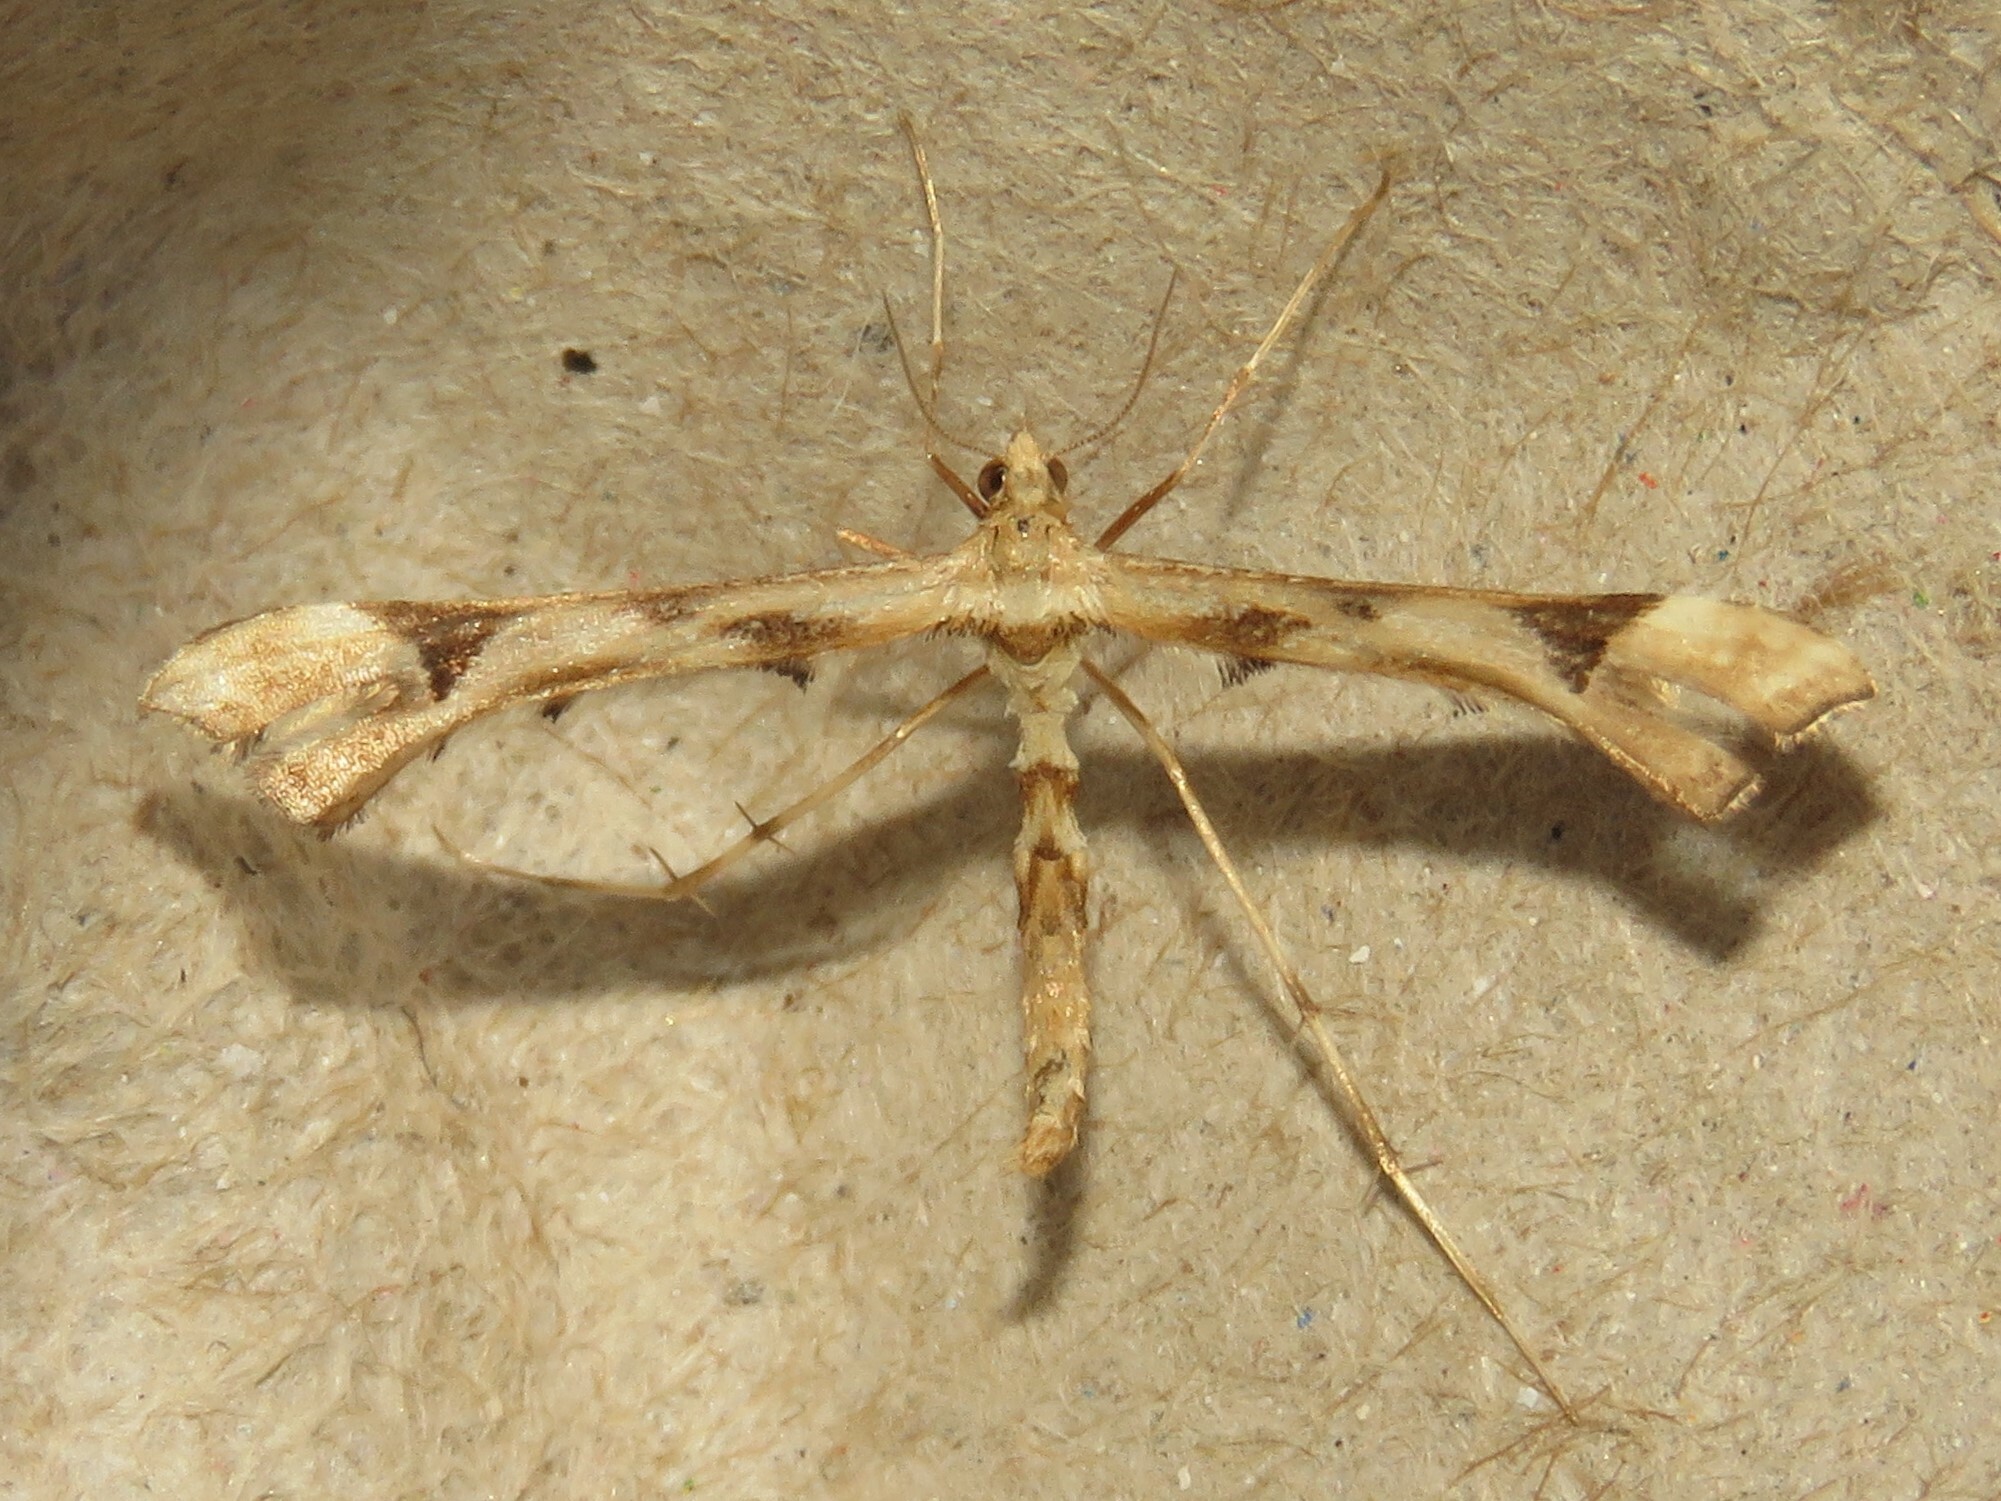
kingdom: Animalia
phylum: Arthropoda
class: Insecta
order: Lepidoptera
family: Pterophoridae
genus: Platyptilia
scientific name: Platyptilia carduidactylus
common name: Artichoke plume moth
